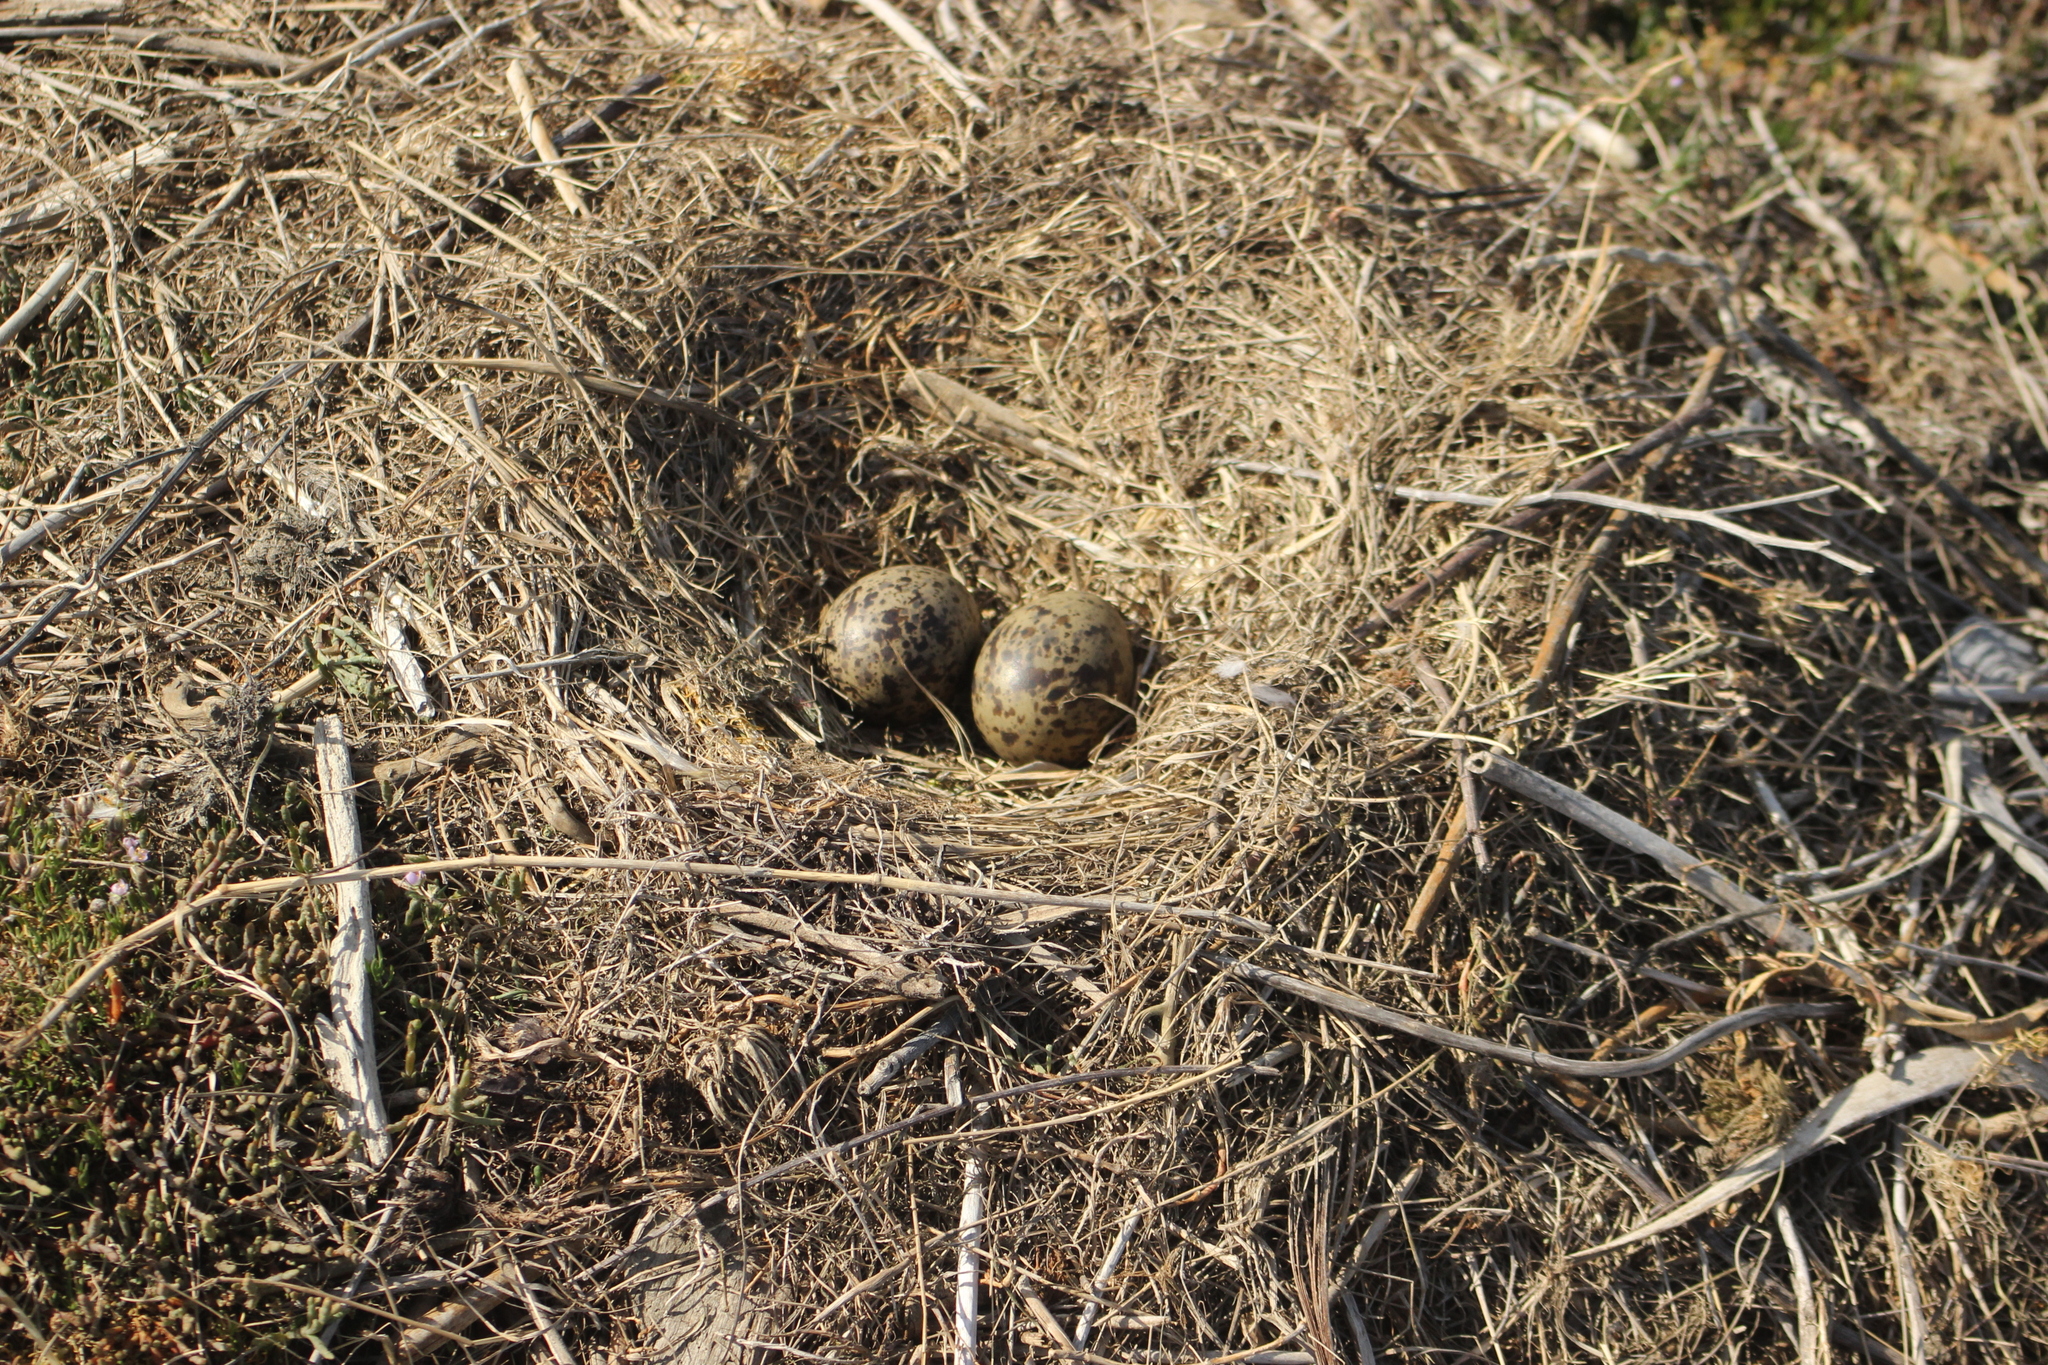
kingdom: Animalia
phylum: Chordata
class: Aves
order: Charadriiformes
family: Laridae
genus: Larus
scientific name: Larus dominicanus
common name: Kelp gull
